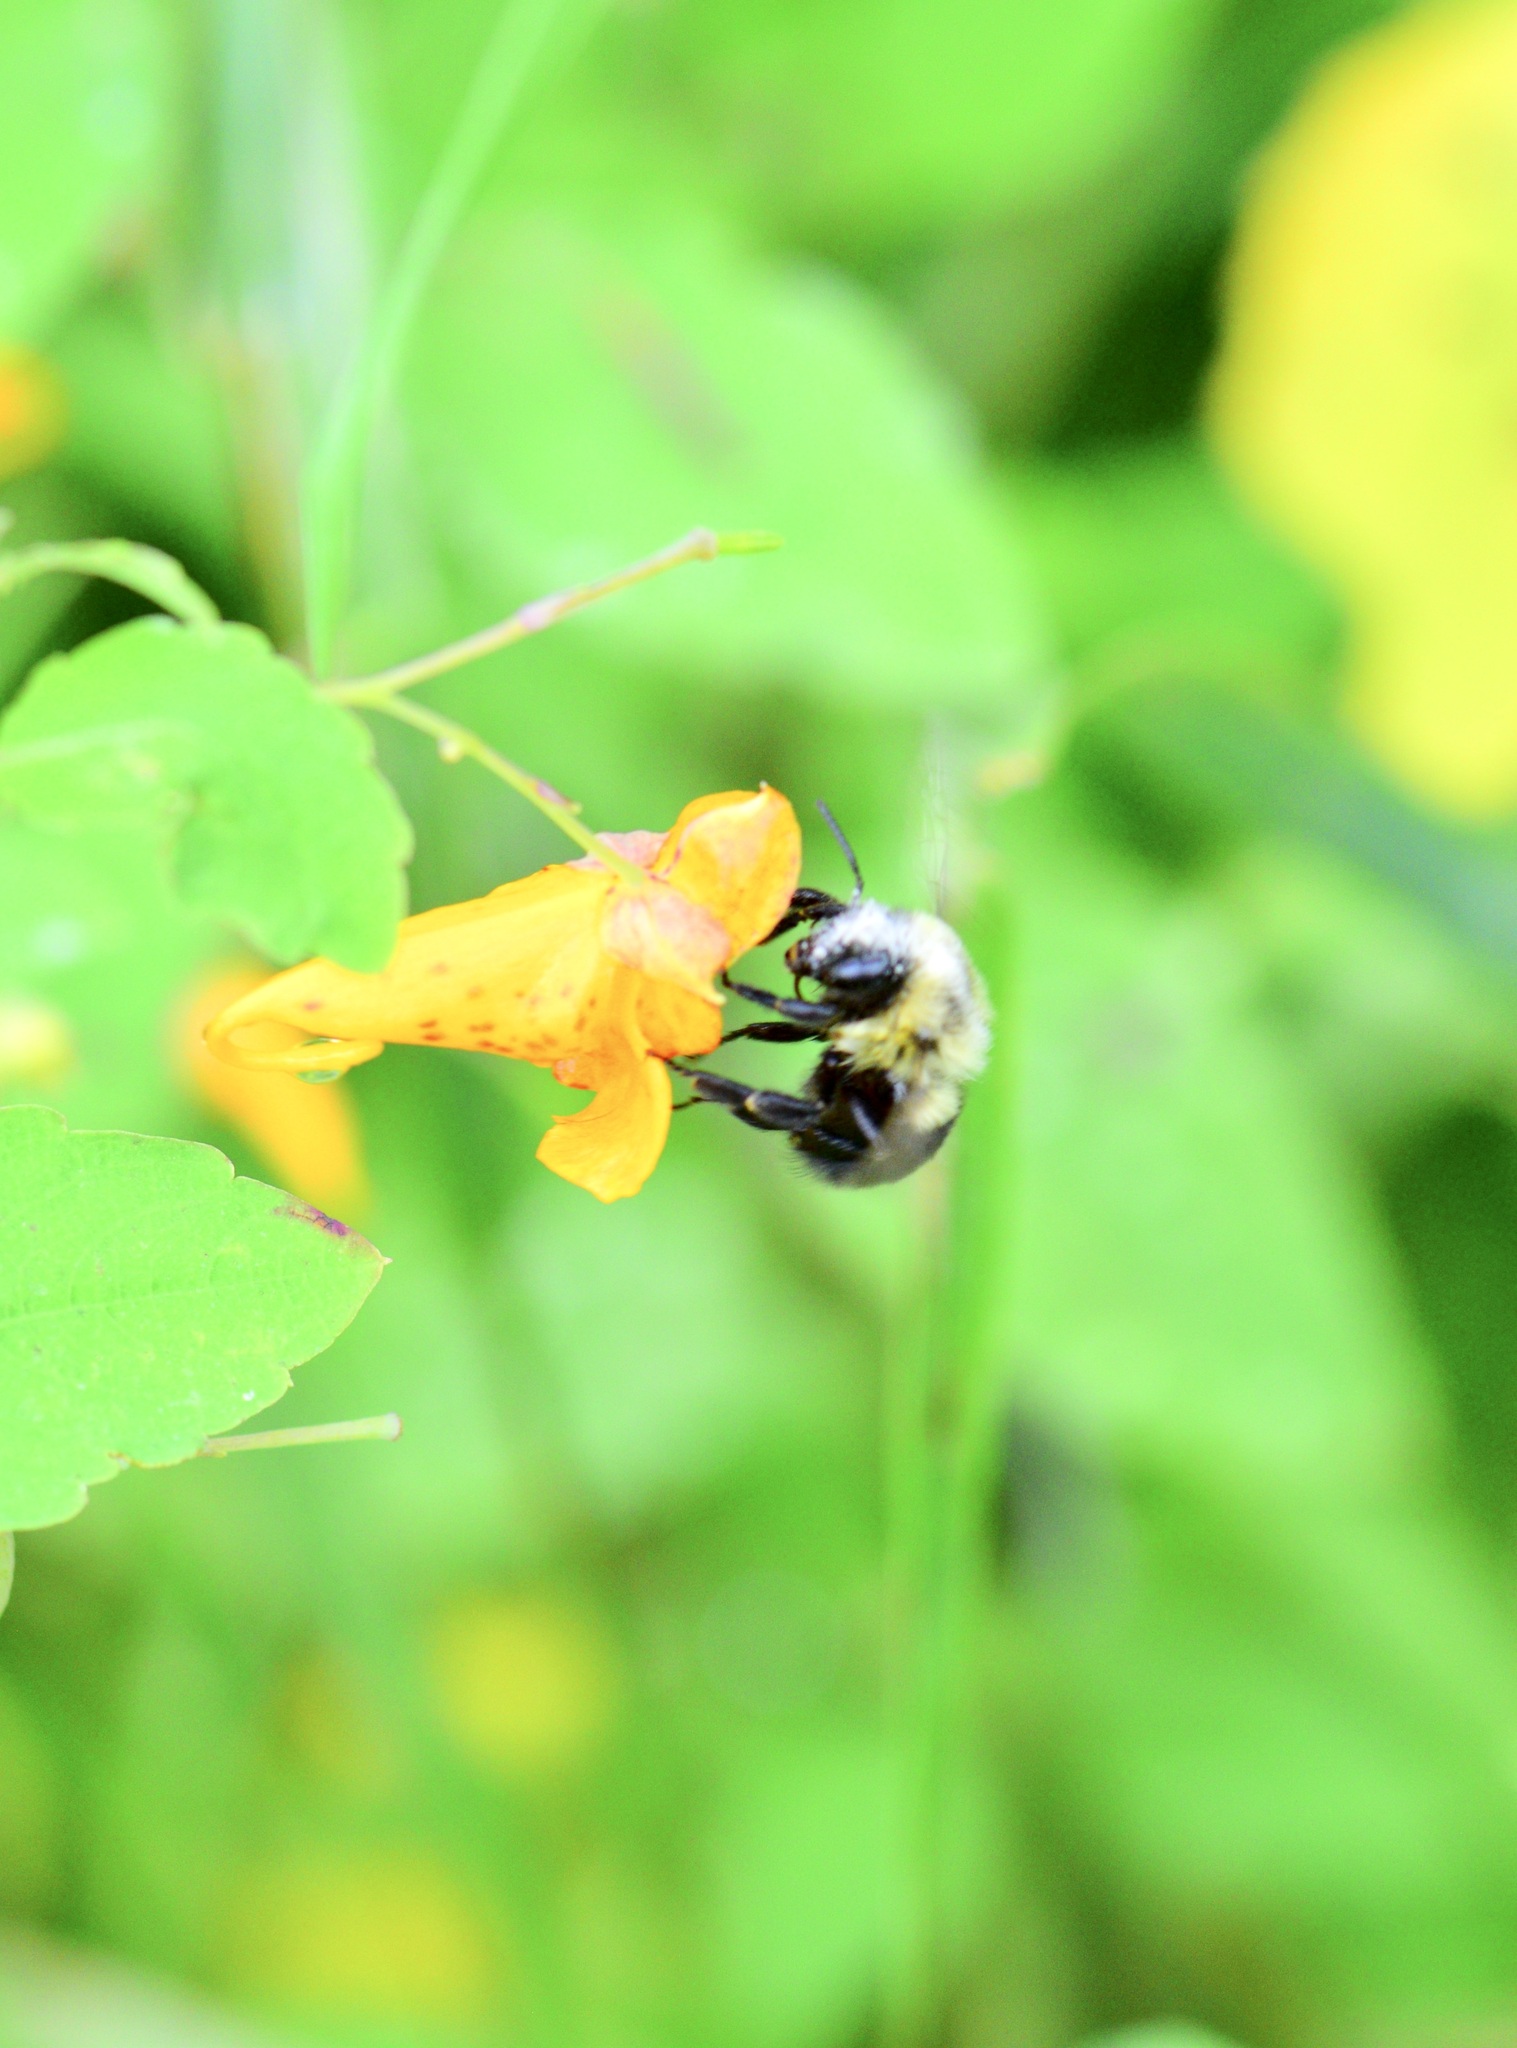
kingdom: Animalia
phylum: Arthropoda
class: Insecta
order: Hymenoptera
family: Apidae
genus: Bombus
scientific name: Bombus impatiens
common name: Common eastern bumble bee
